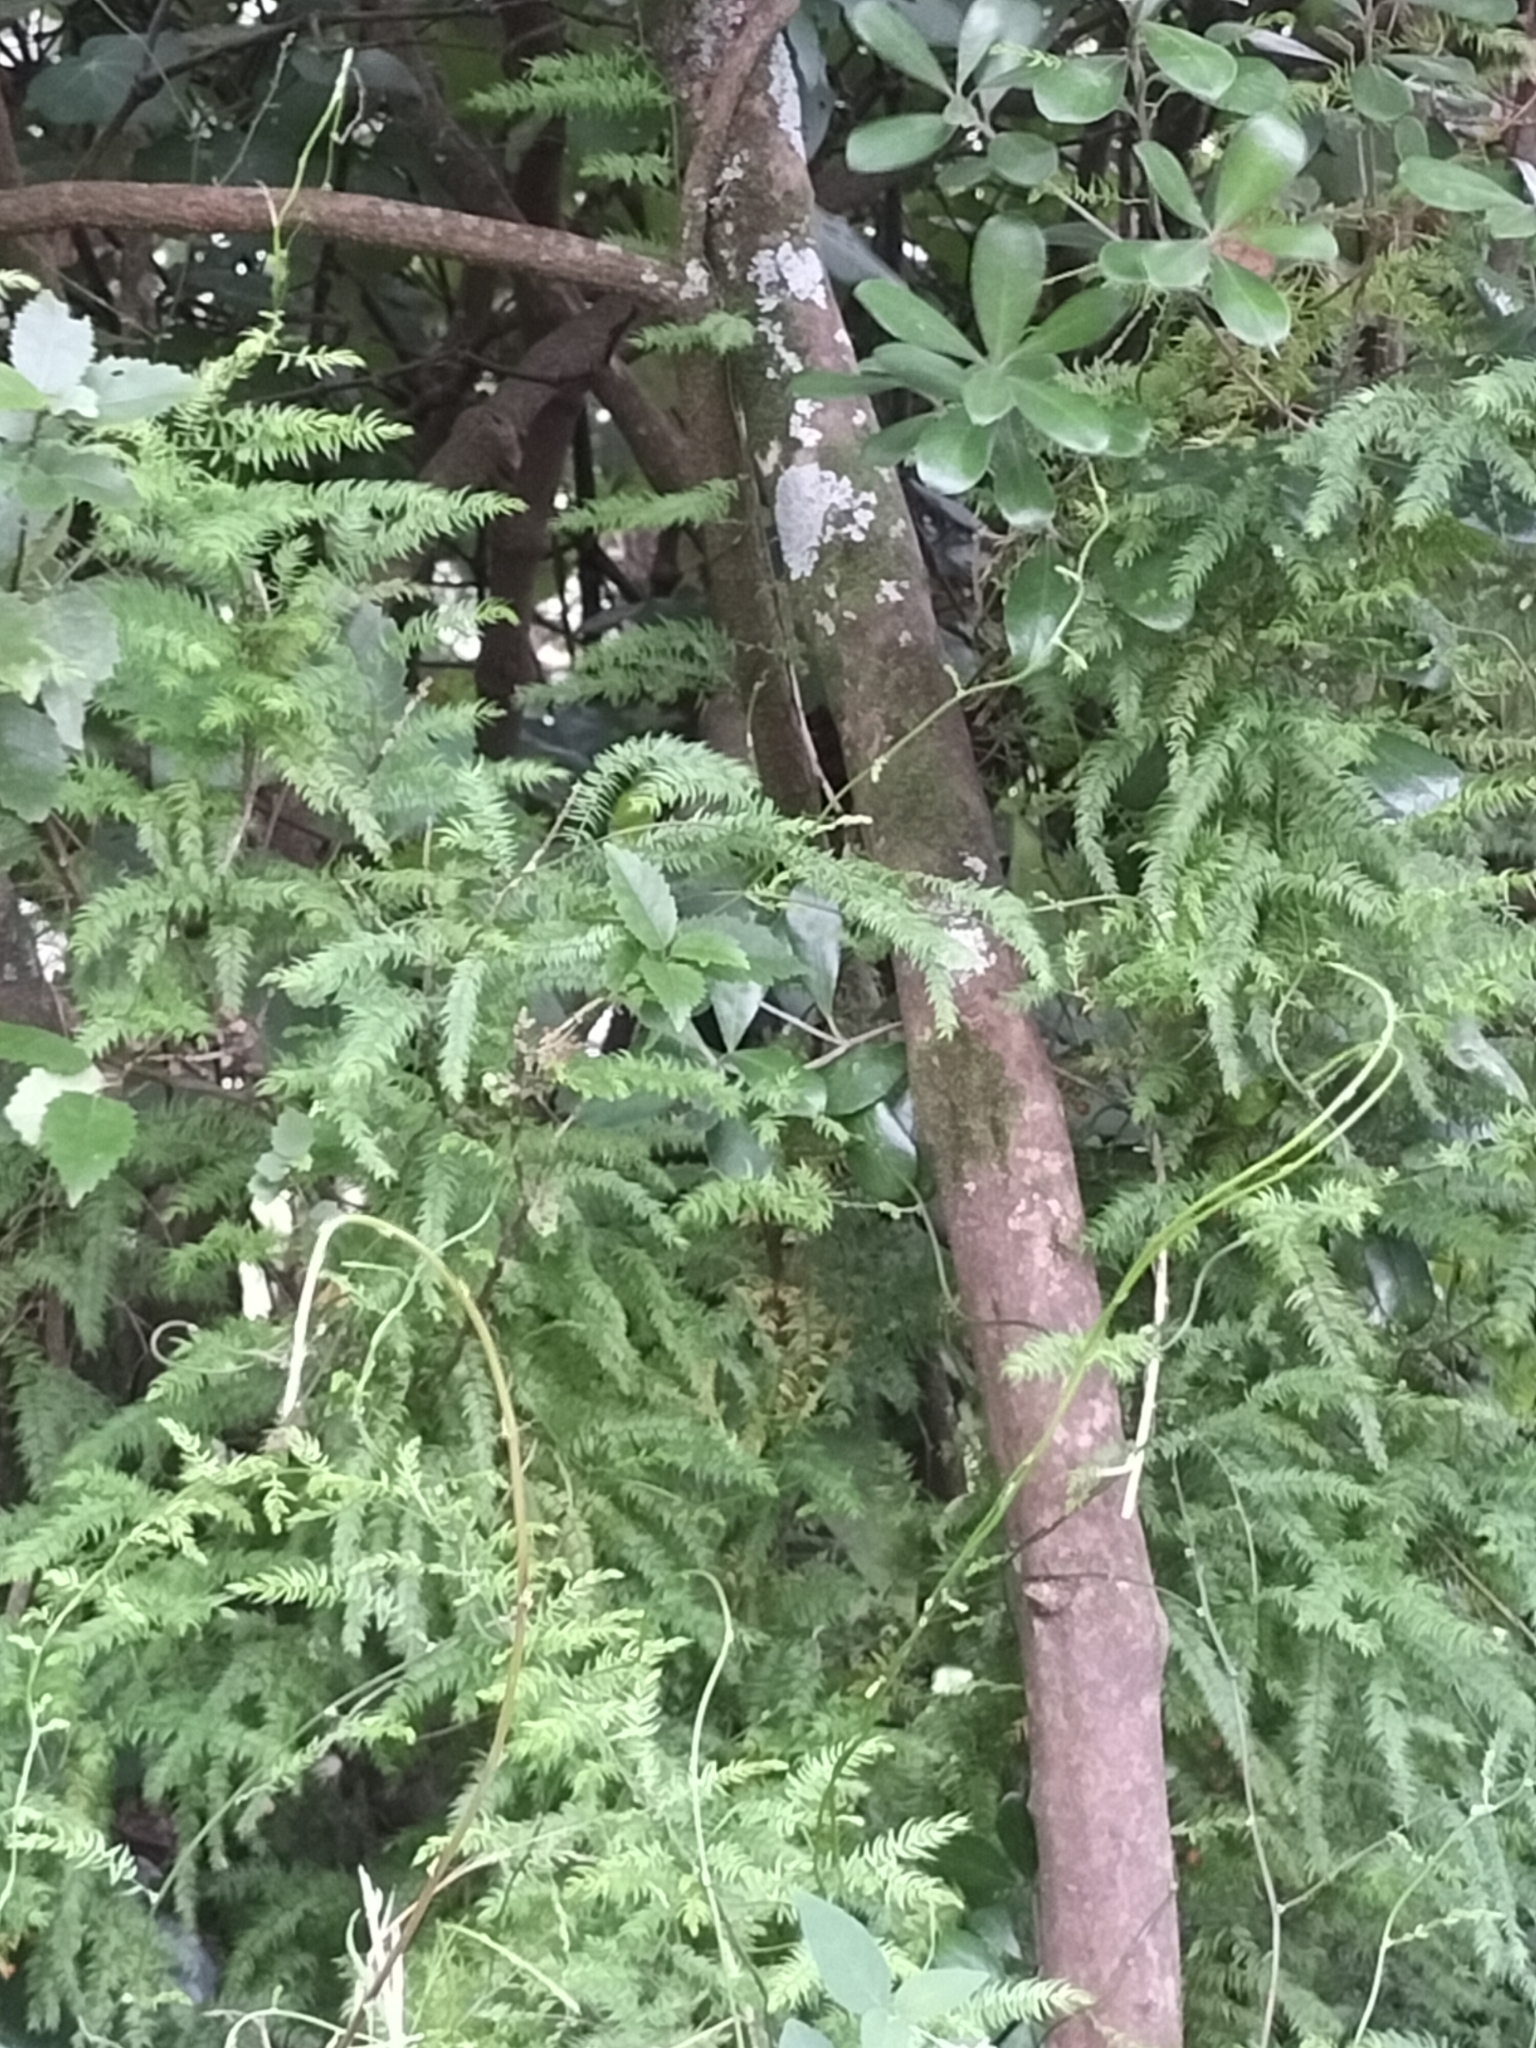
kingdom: Plantae
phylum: Tracheophyta
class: Liliopsida
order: Asparagales
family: Asparagaceae
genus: Asparagus
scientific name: Asparagus scandens
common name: Asparagus-fern
